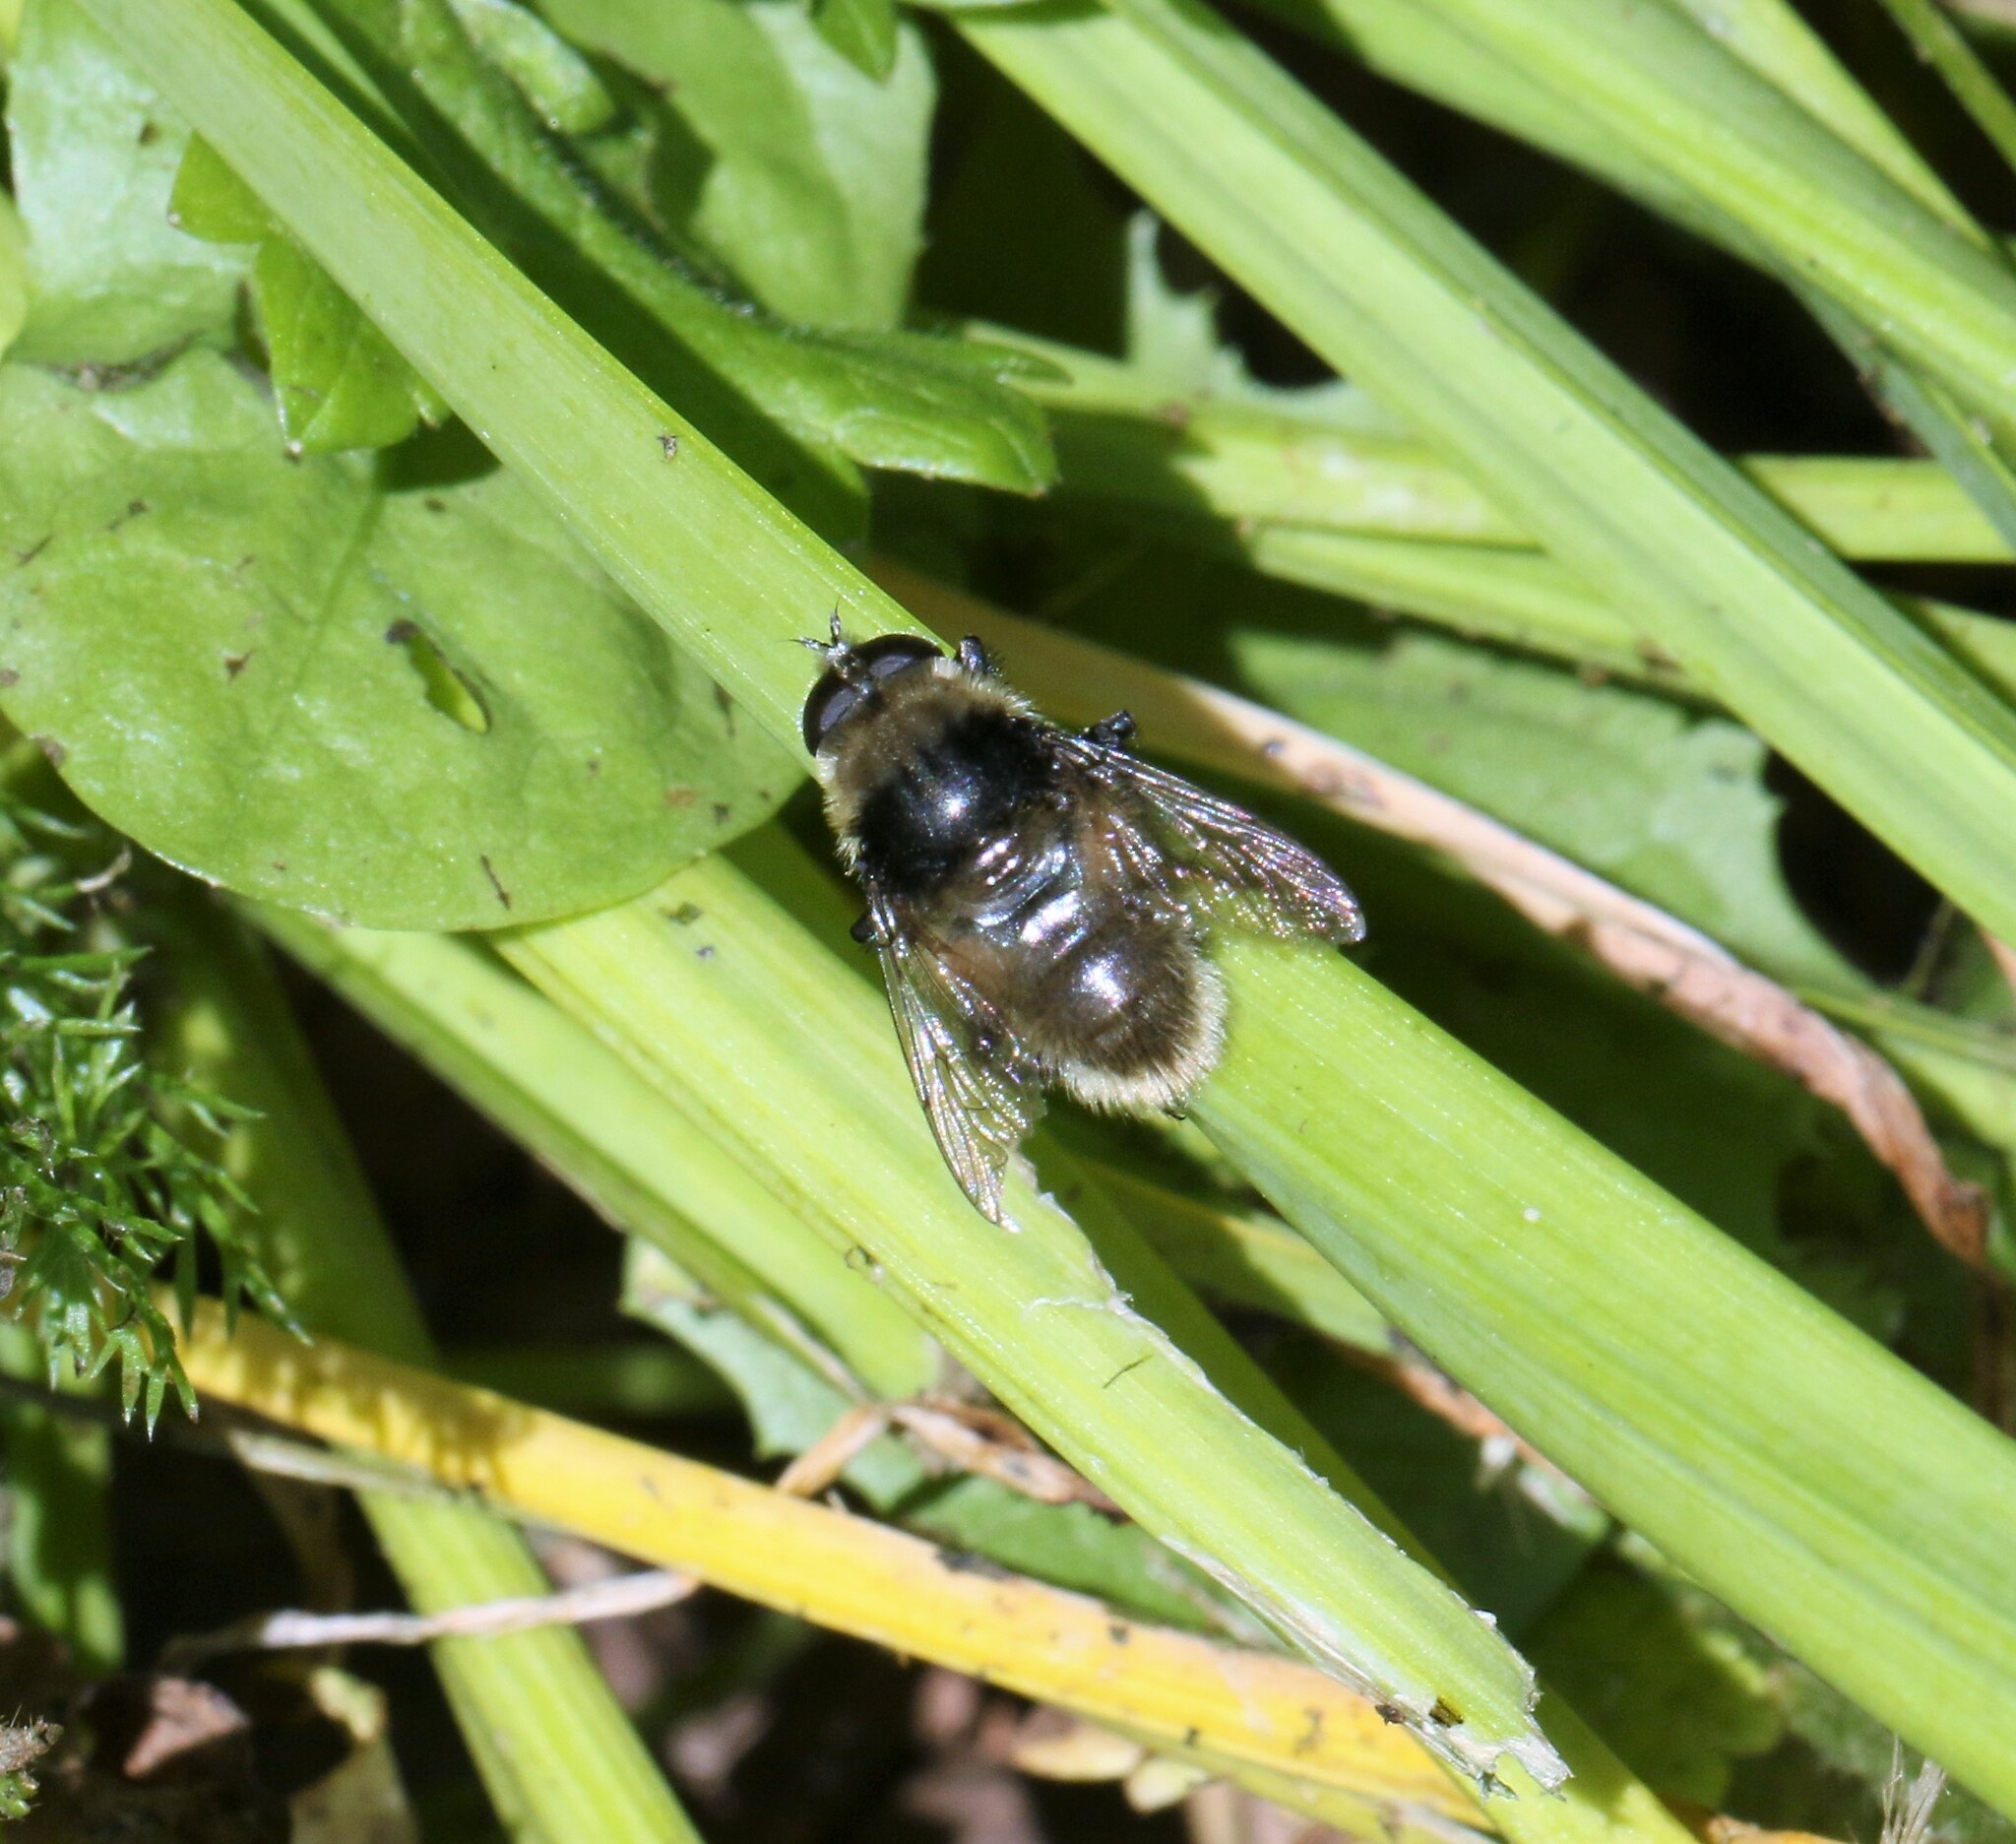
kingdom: Animalia
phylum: Arthropoda
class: Insecta
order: Diptera
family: Syrphidae
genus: Merodon
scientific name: Merodon equestris
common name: Greater bulb-fly
